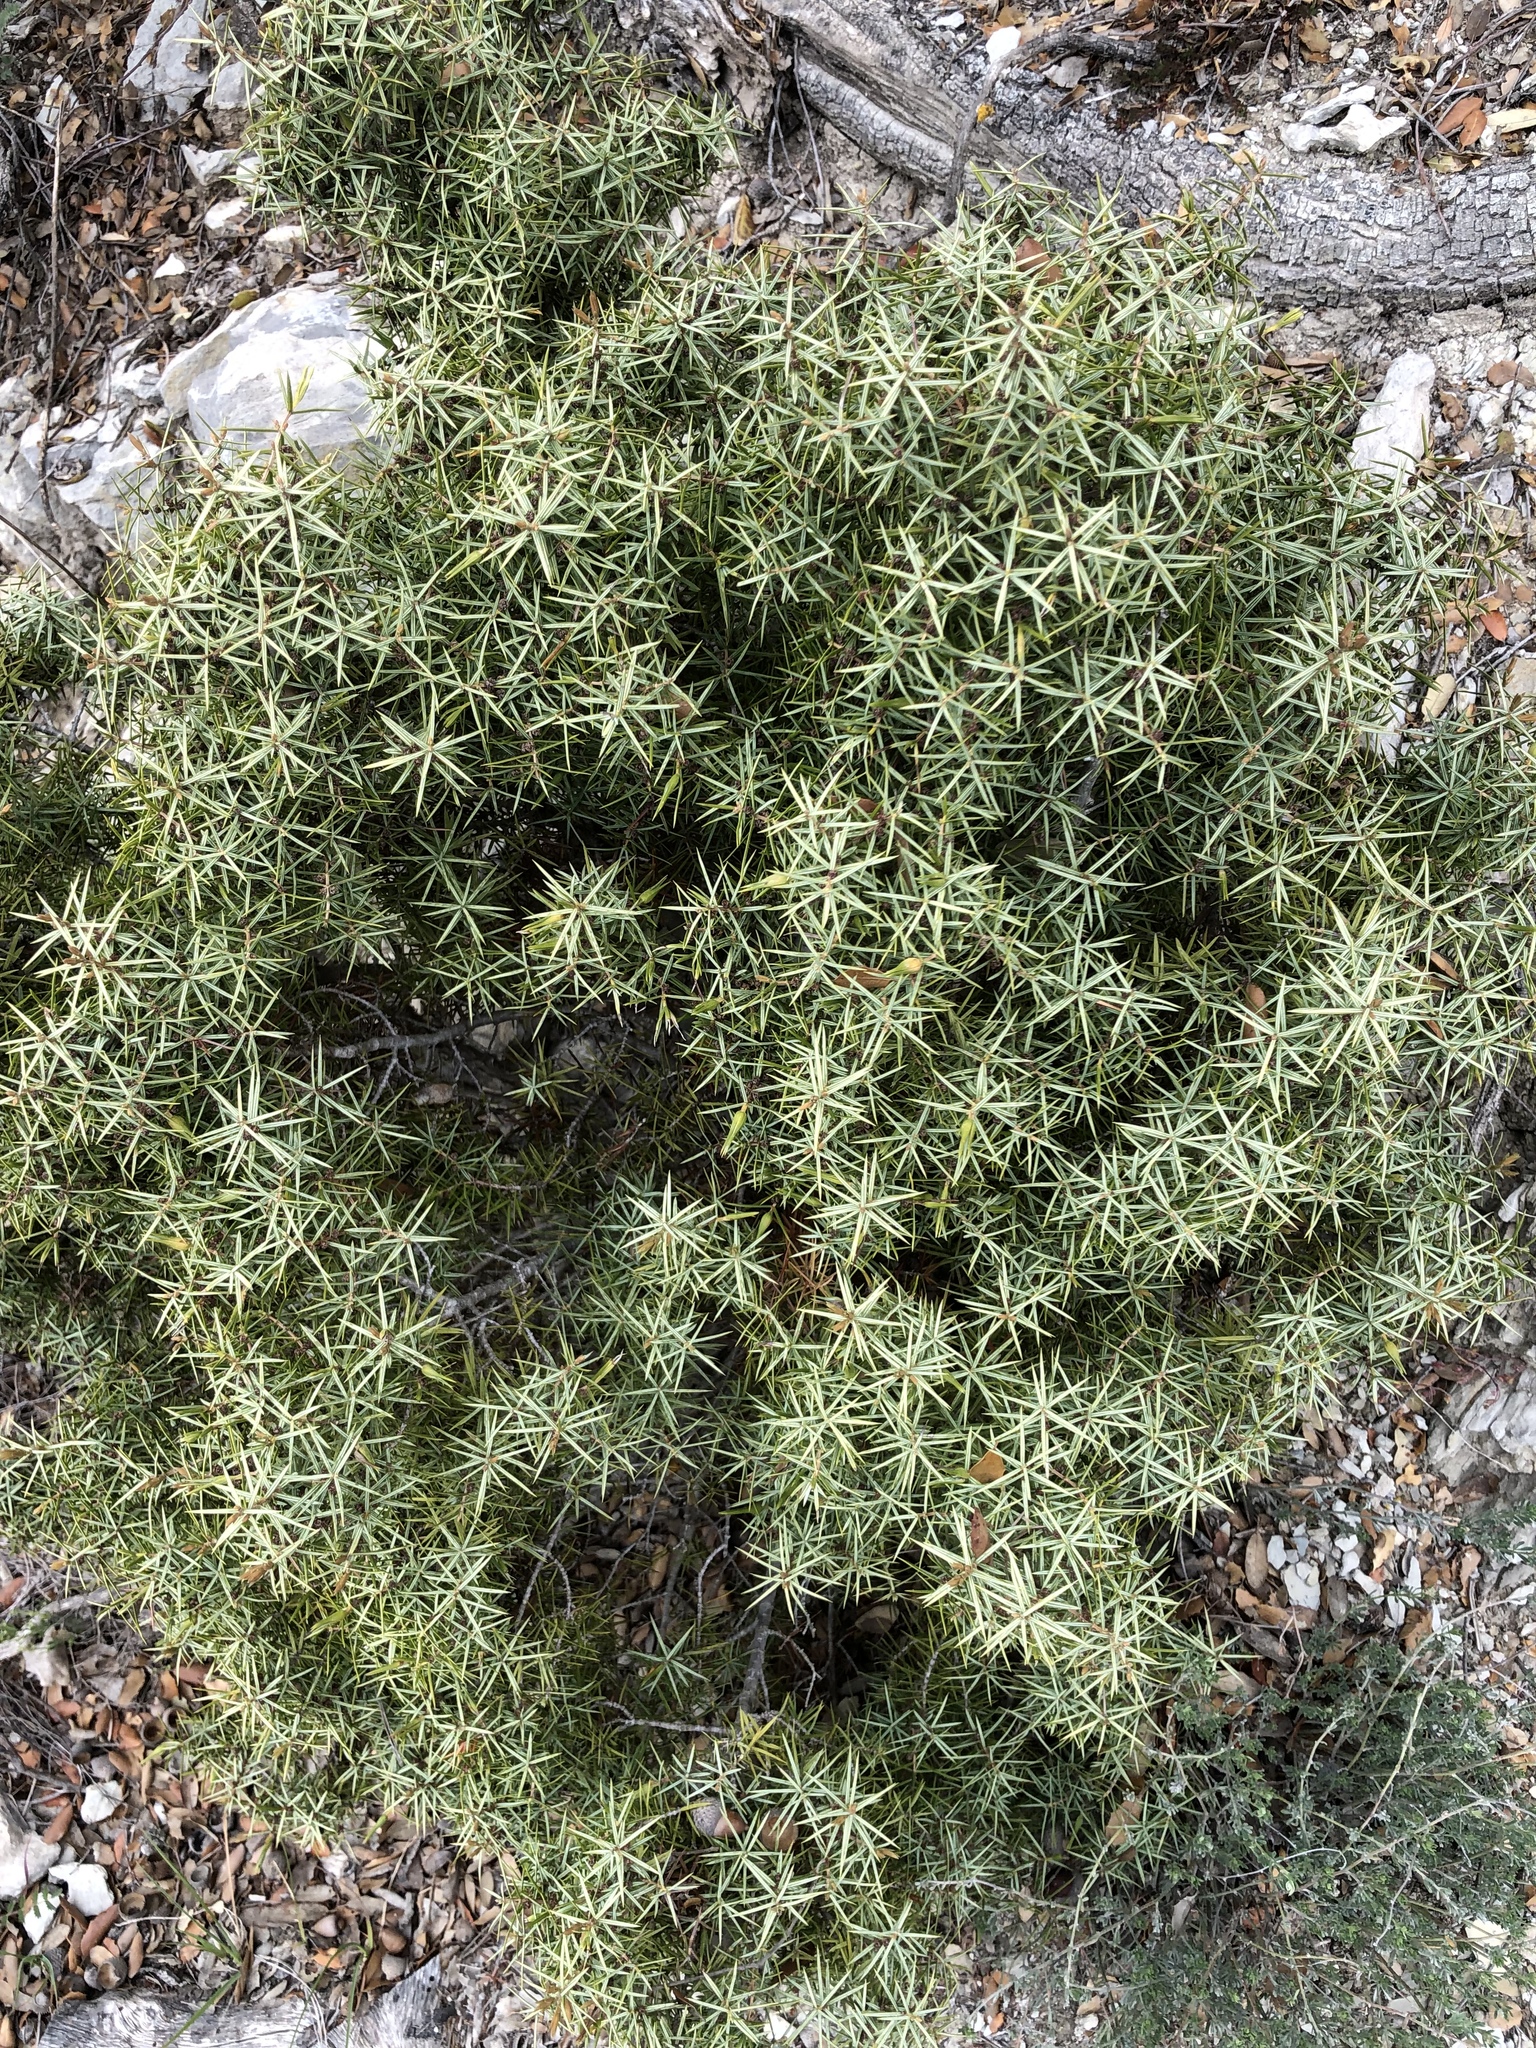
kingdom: Plantae
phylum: Tracheophyta
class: Pinopsida
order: Pinales
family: Cupressaceae
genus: Juniperus
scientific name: Juniperus oxycedrus
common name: Prickly juniper
